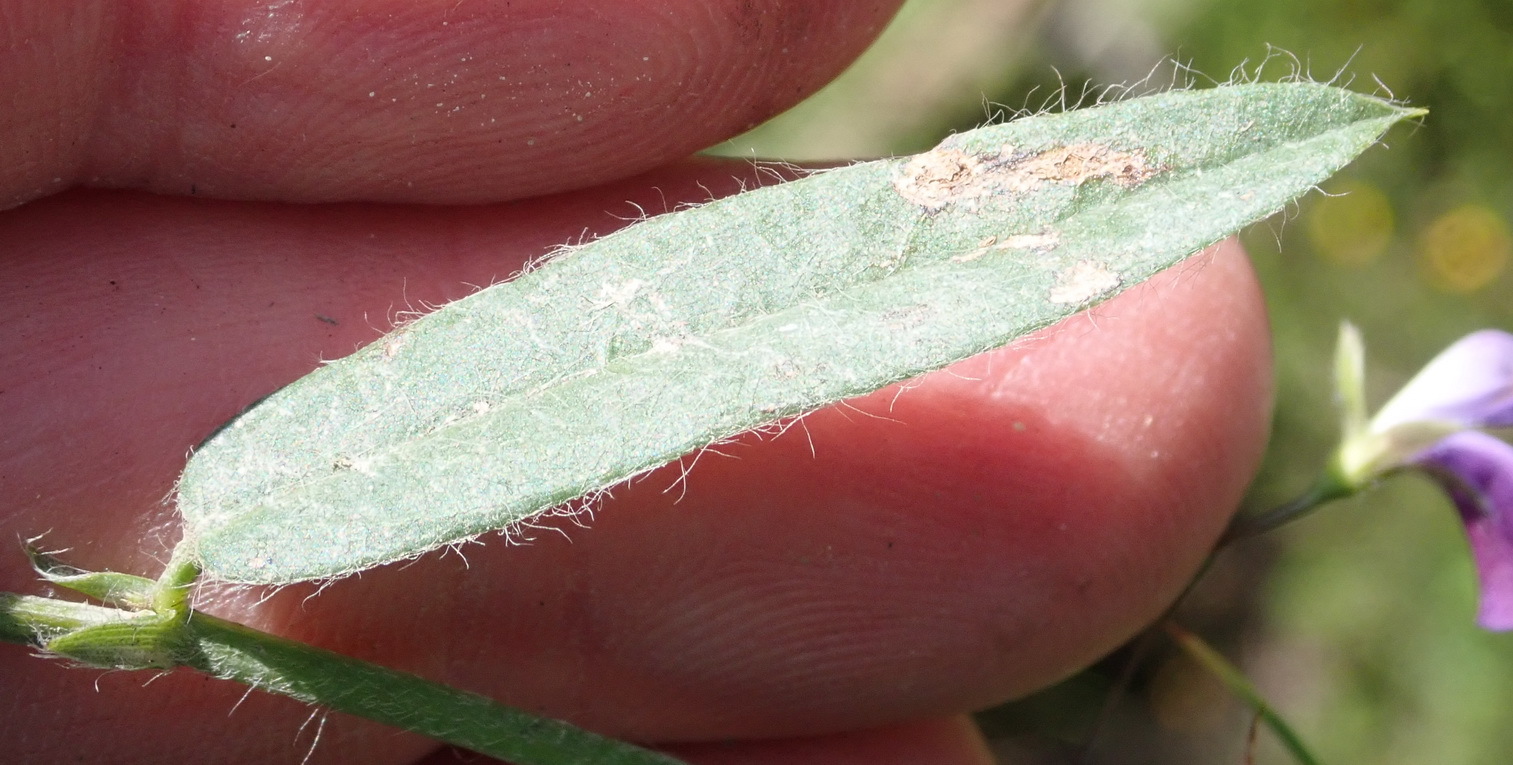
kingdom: Plantae
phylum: Tracheophyta
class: Magnoliopsida
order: Fabales
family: Fabaceae
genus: Psoralea
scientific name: Psoralea plauta
